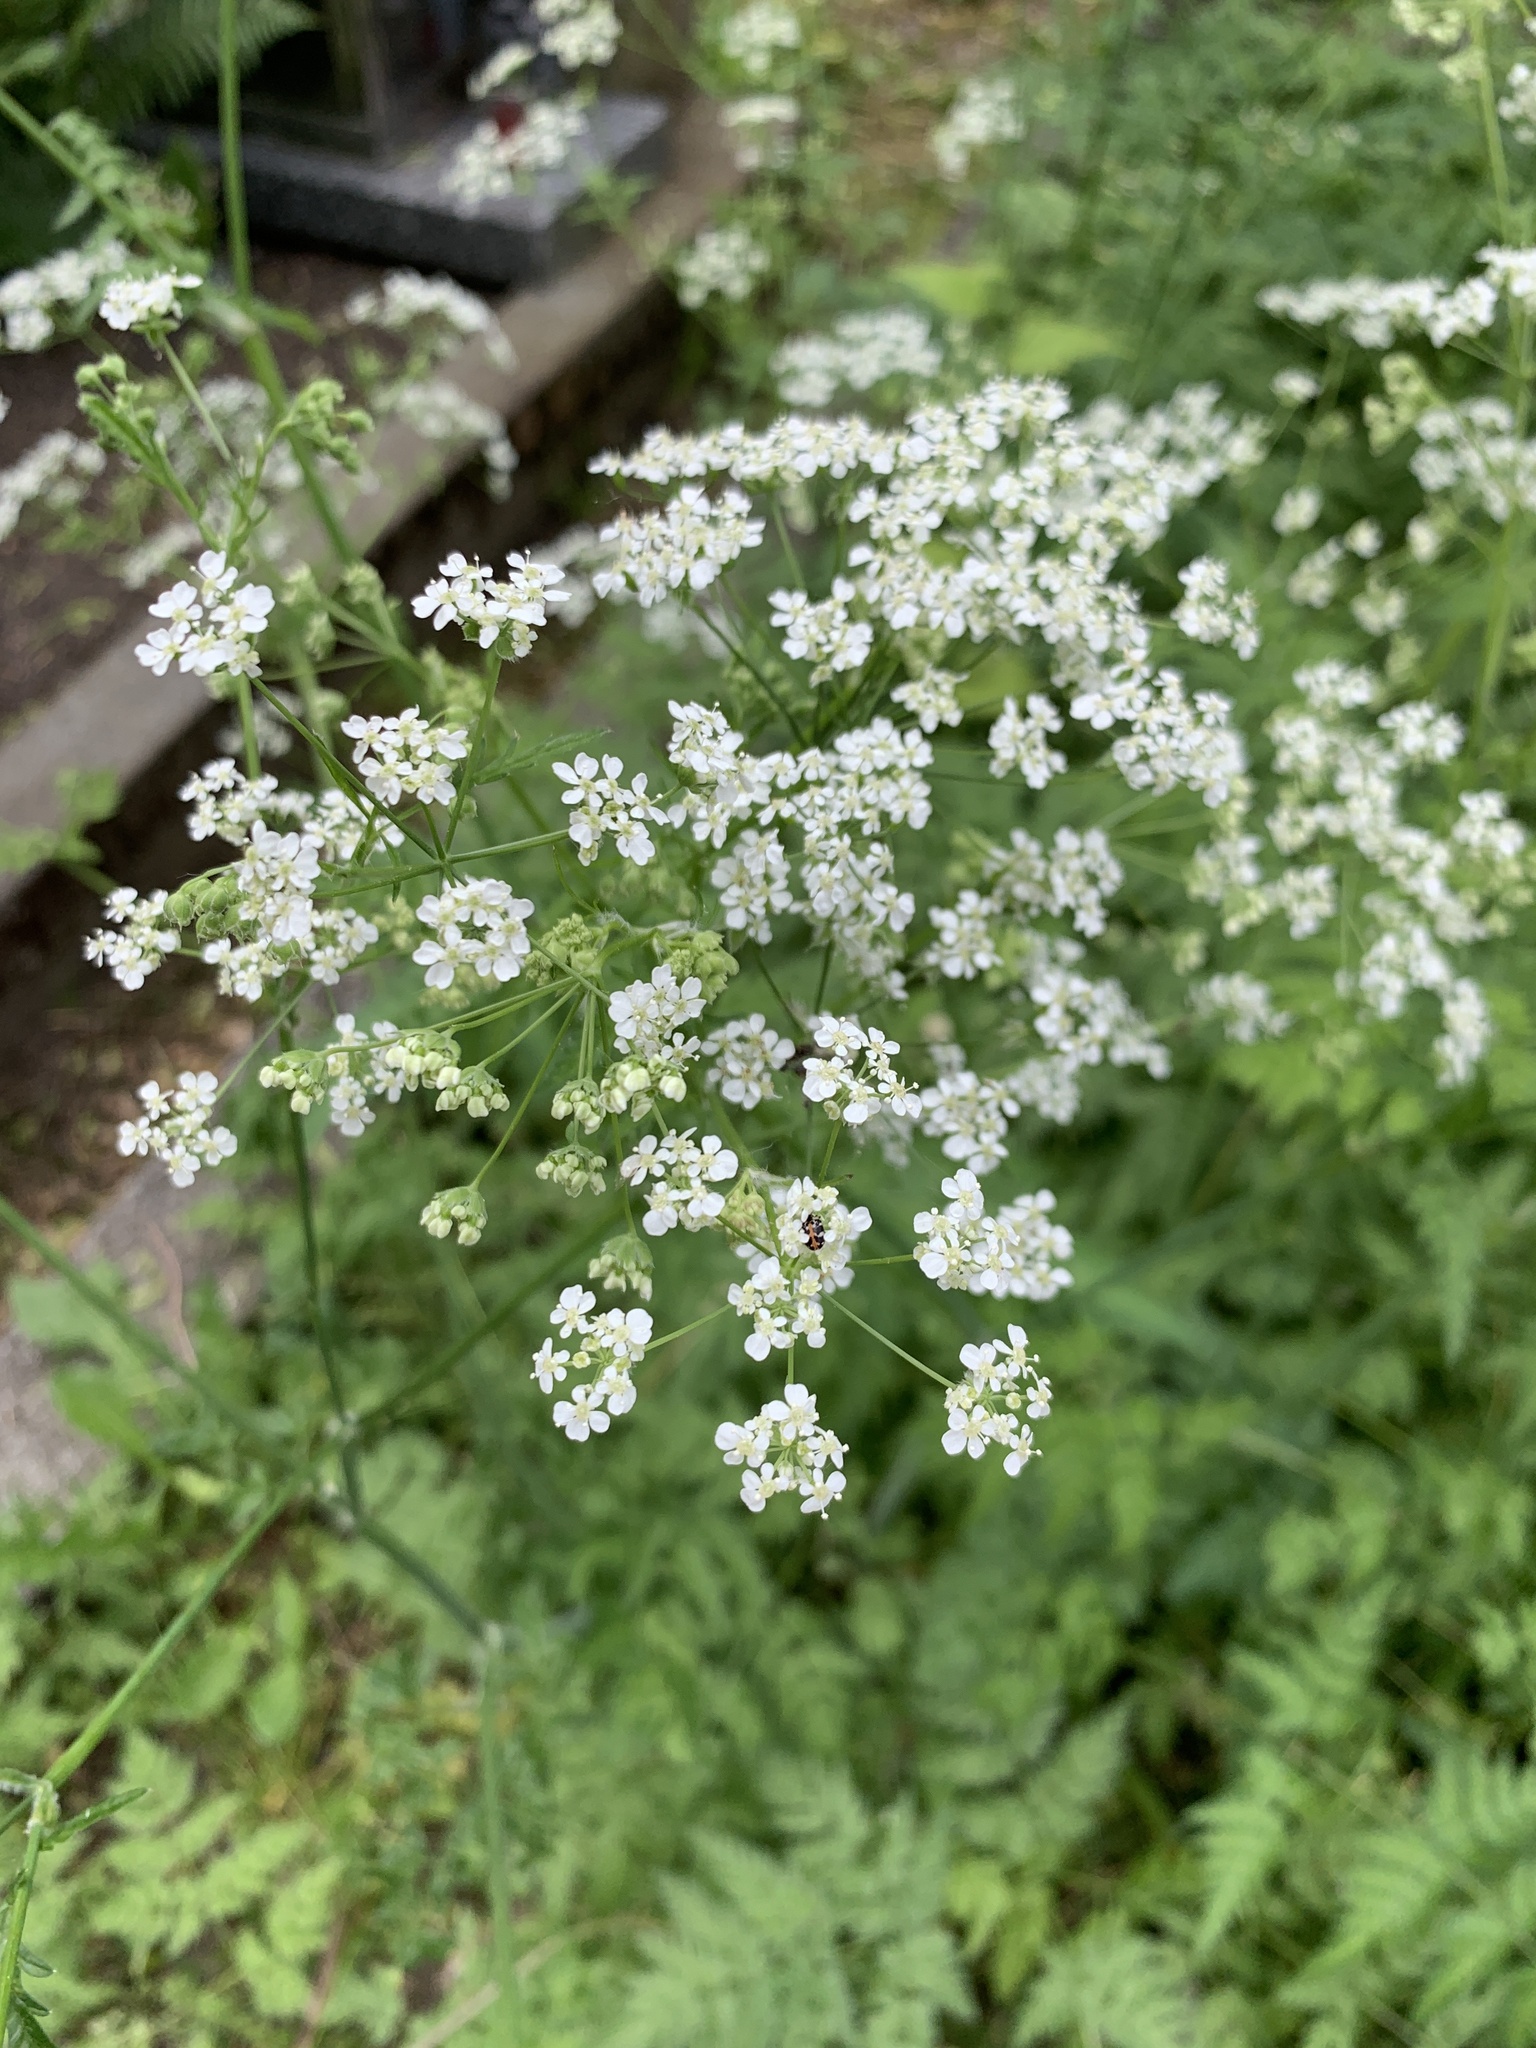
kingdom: Plantae
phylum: Tracheophyta
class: Magnoliopsida
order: Apiales
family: Apiaceae
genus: Anthriscus
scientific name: Anthriscus sylvestris
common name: Cow parsley
